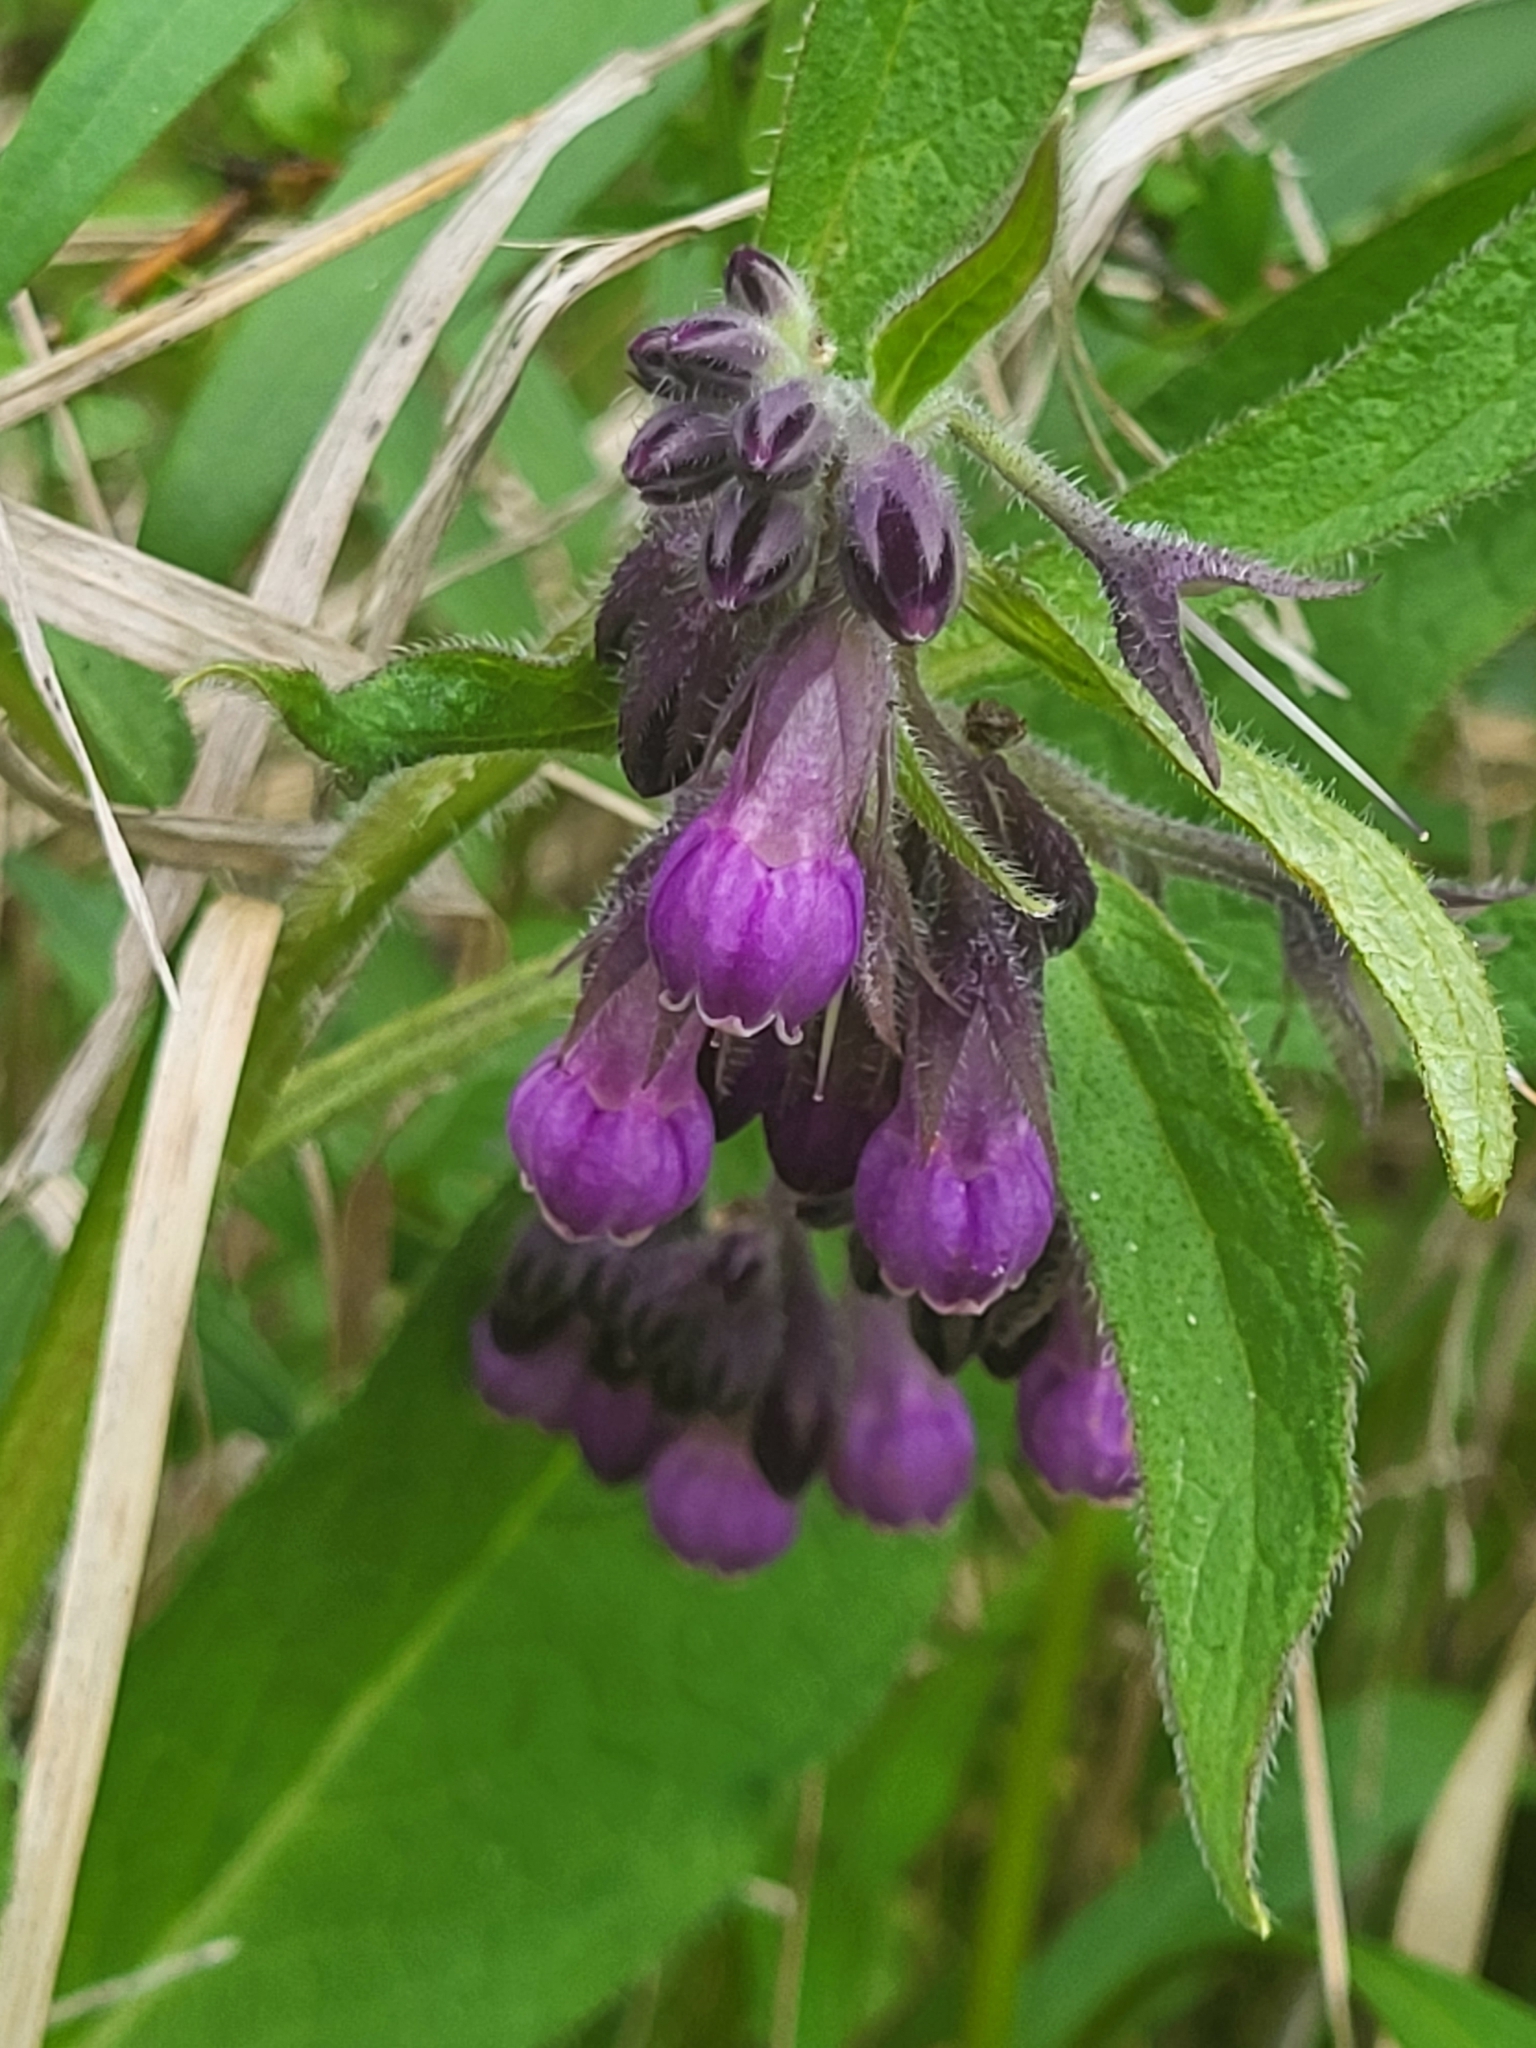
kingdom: Plantae
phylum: Tracheophyta
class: Magnoliopsida
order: Boraginales
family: Boraginaceae
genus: Symphytum
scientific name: Symphytum officinale
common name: Common comfrey
